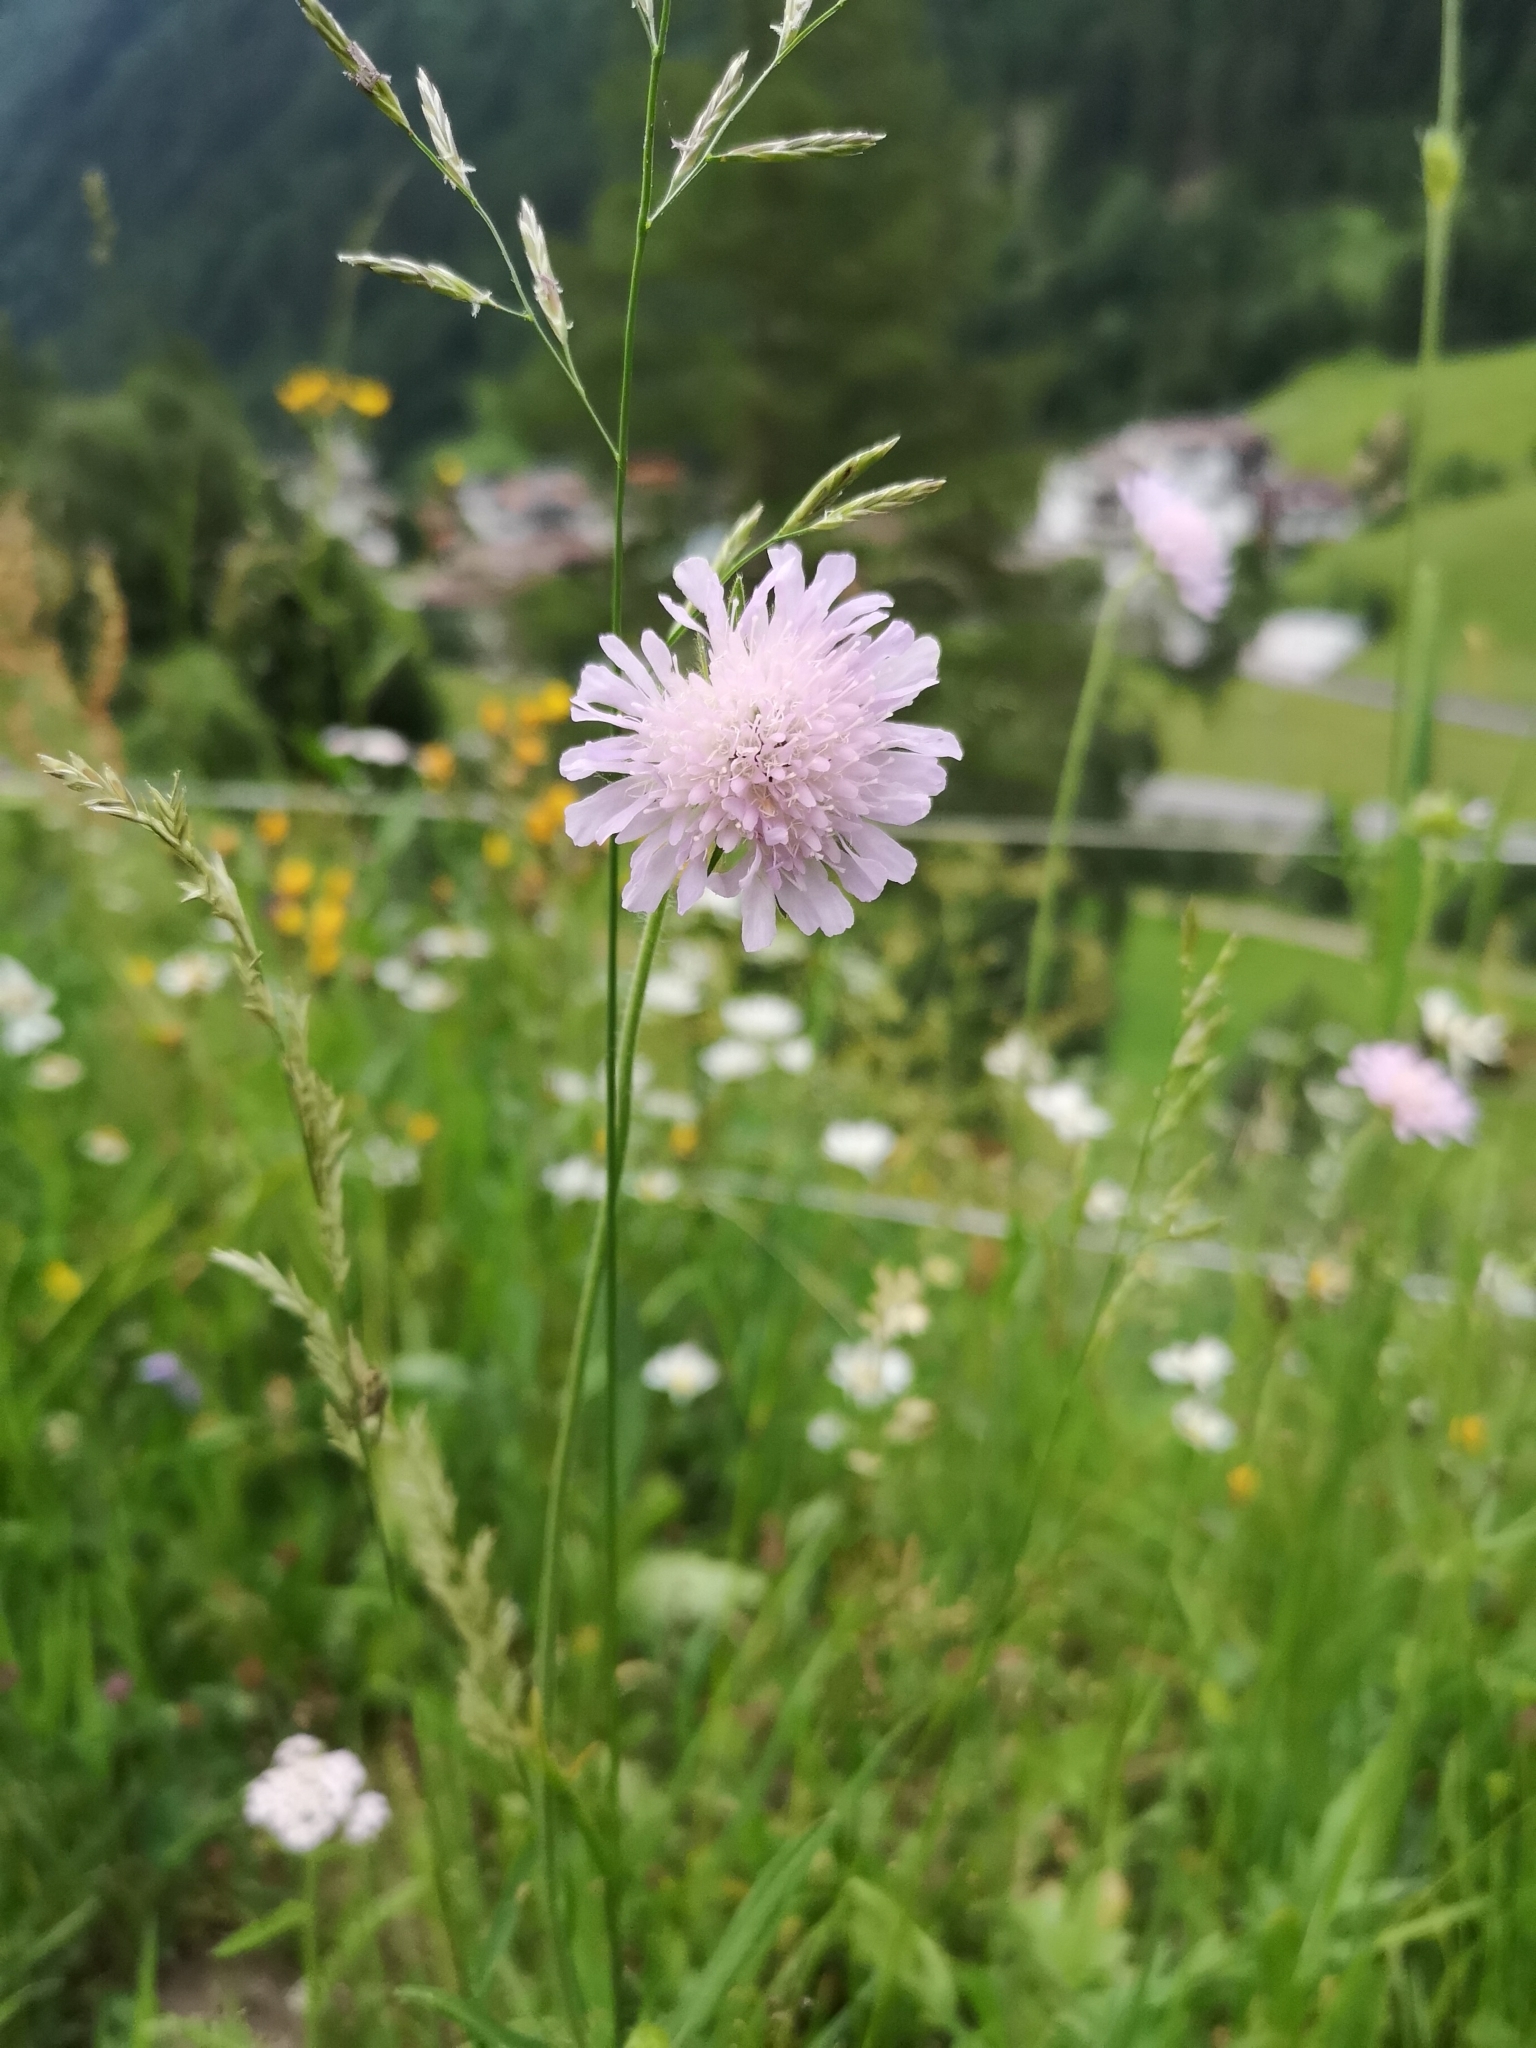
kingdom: Plantae
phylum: Tracheophyta
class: Magnoliopsida
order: Dipsacales
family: Caprifoliaceae
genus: Knautia
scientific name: Knautia arvensis
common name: Field scabiosa
